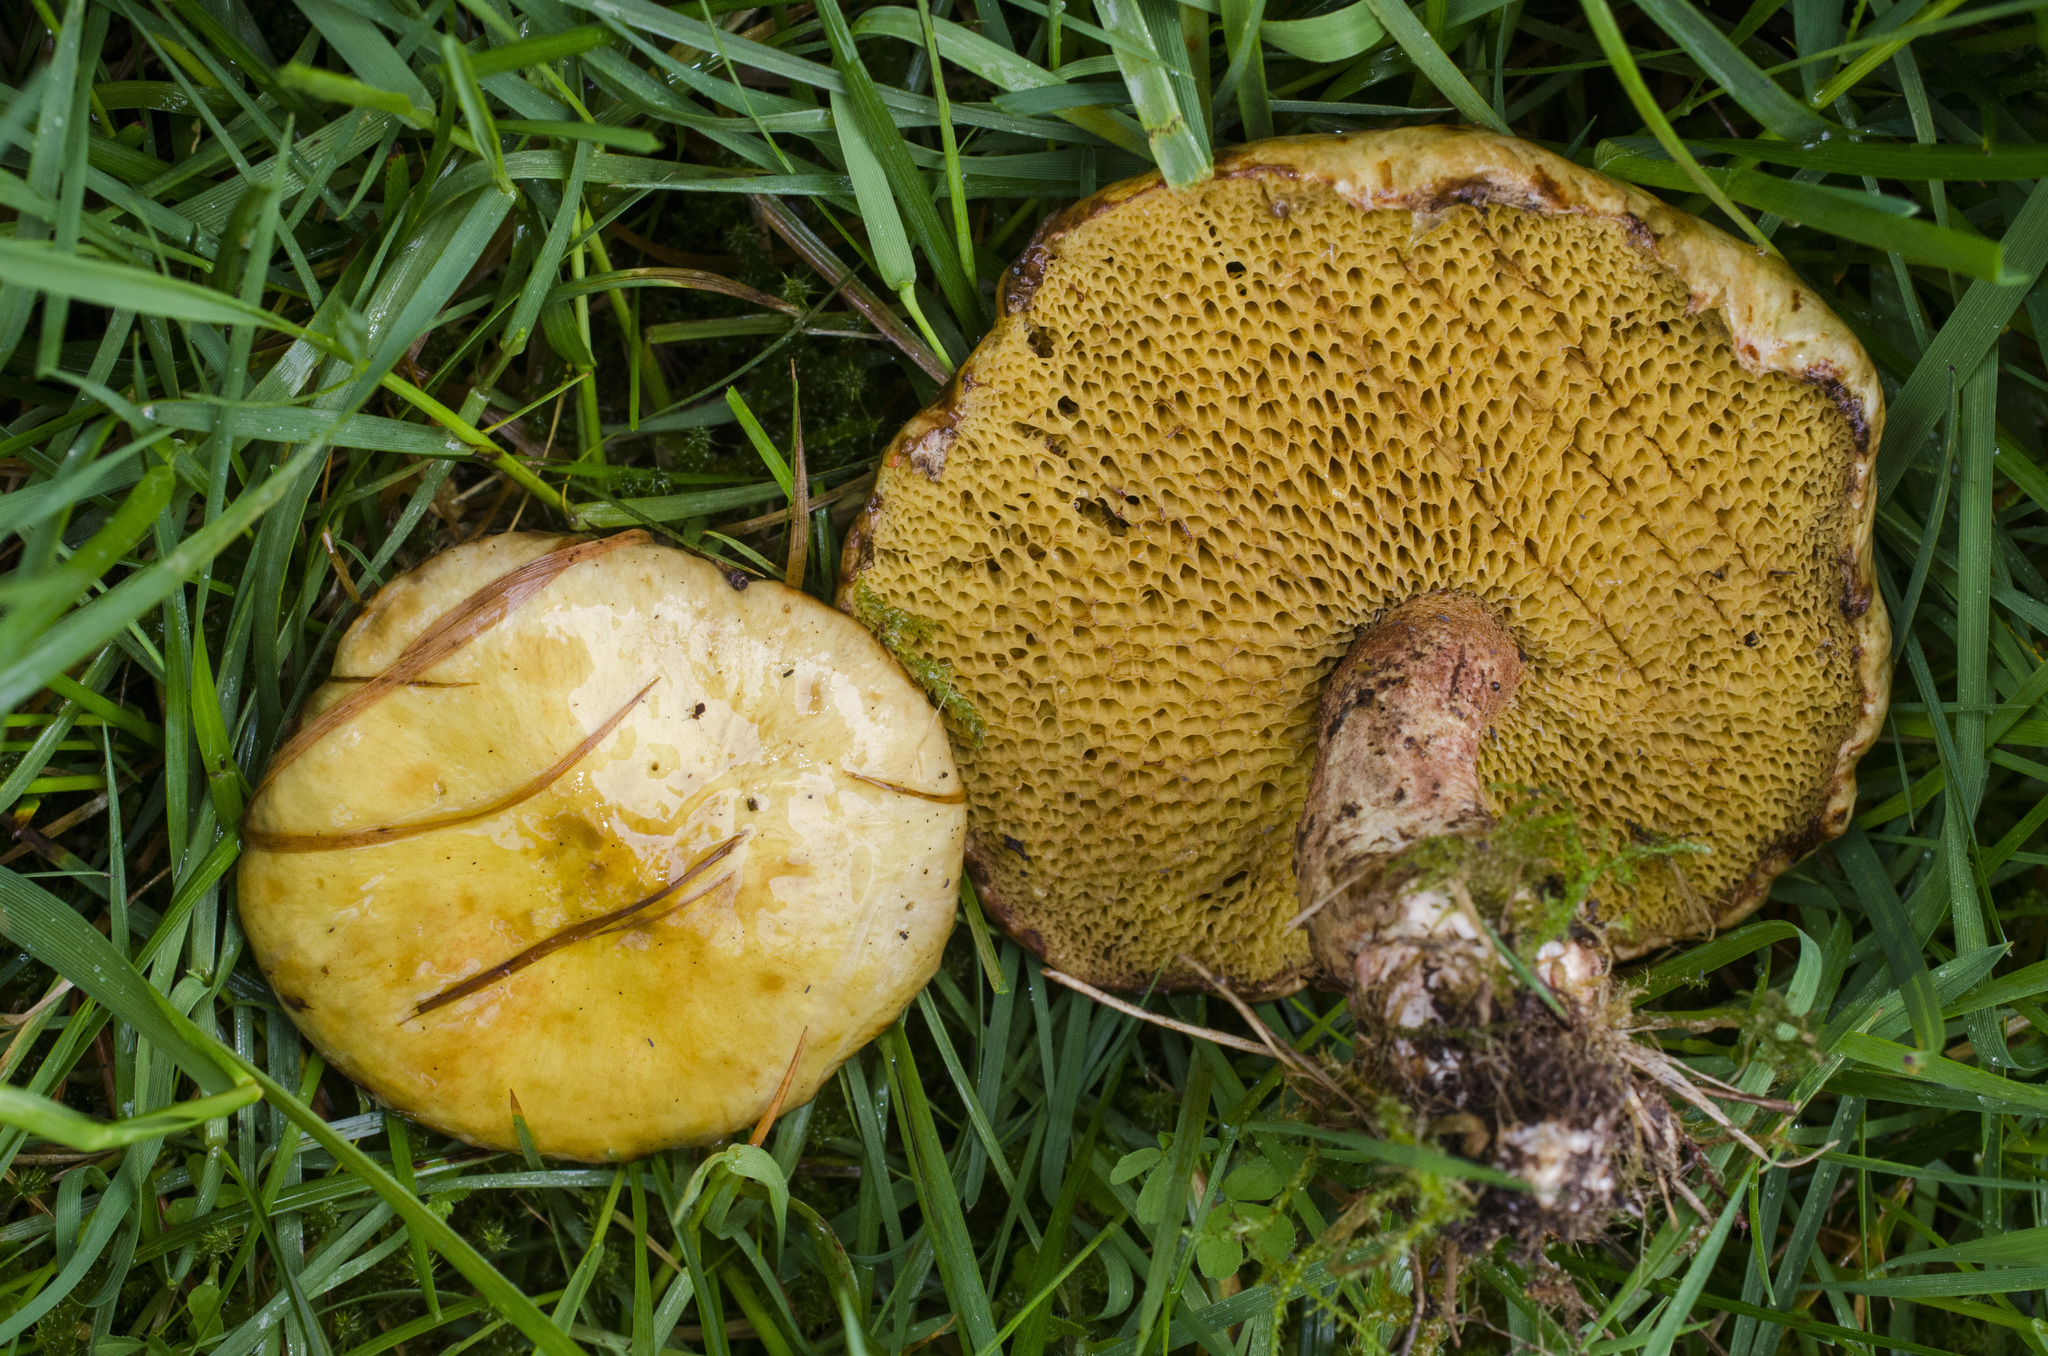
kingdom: Fungi
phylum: Basidiomycota
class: Agaricomycetes
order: Boletales
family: Suillaceae
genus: Suillus
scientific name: Suillus americanus
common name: Chicken fat mushroom
